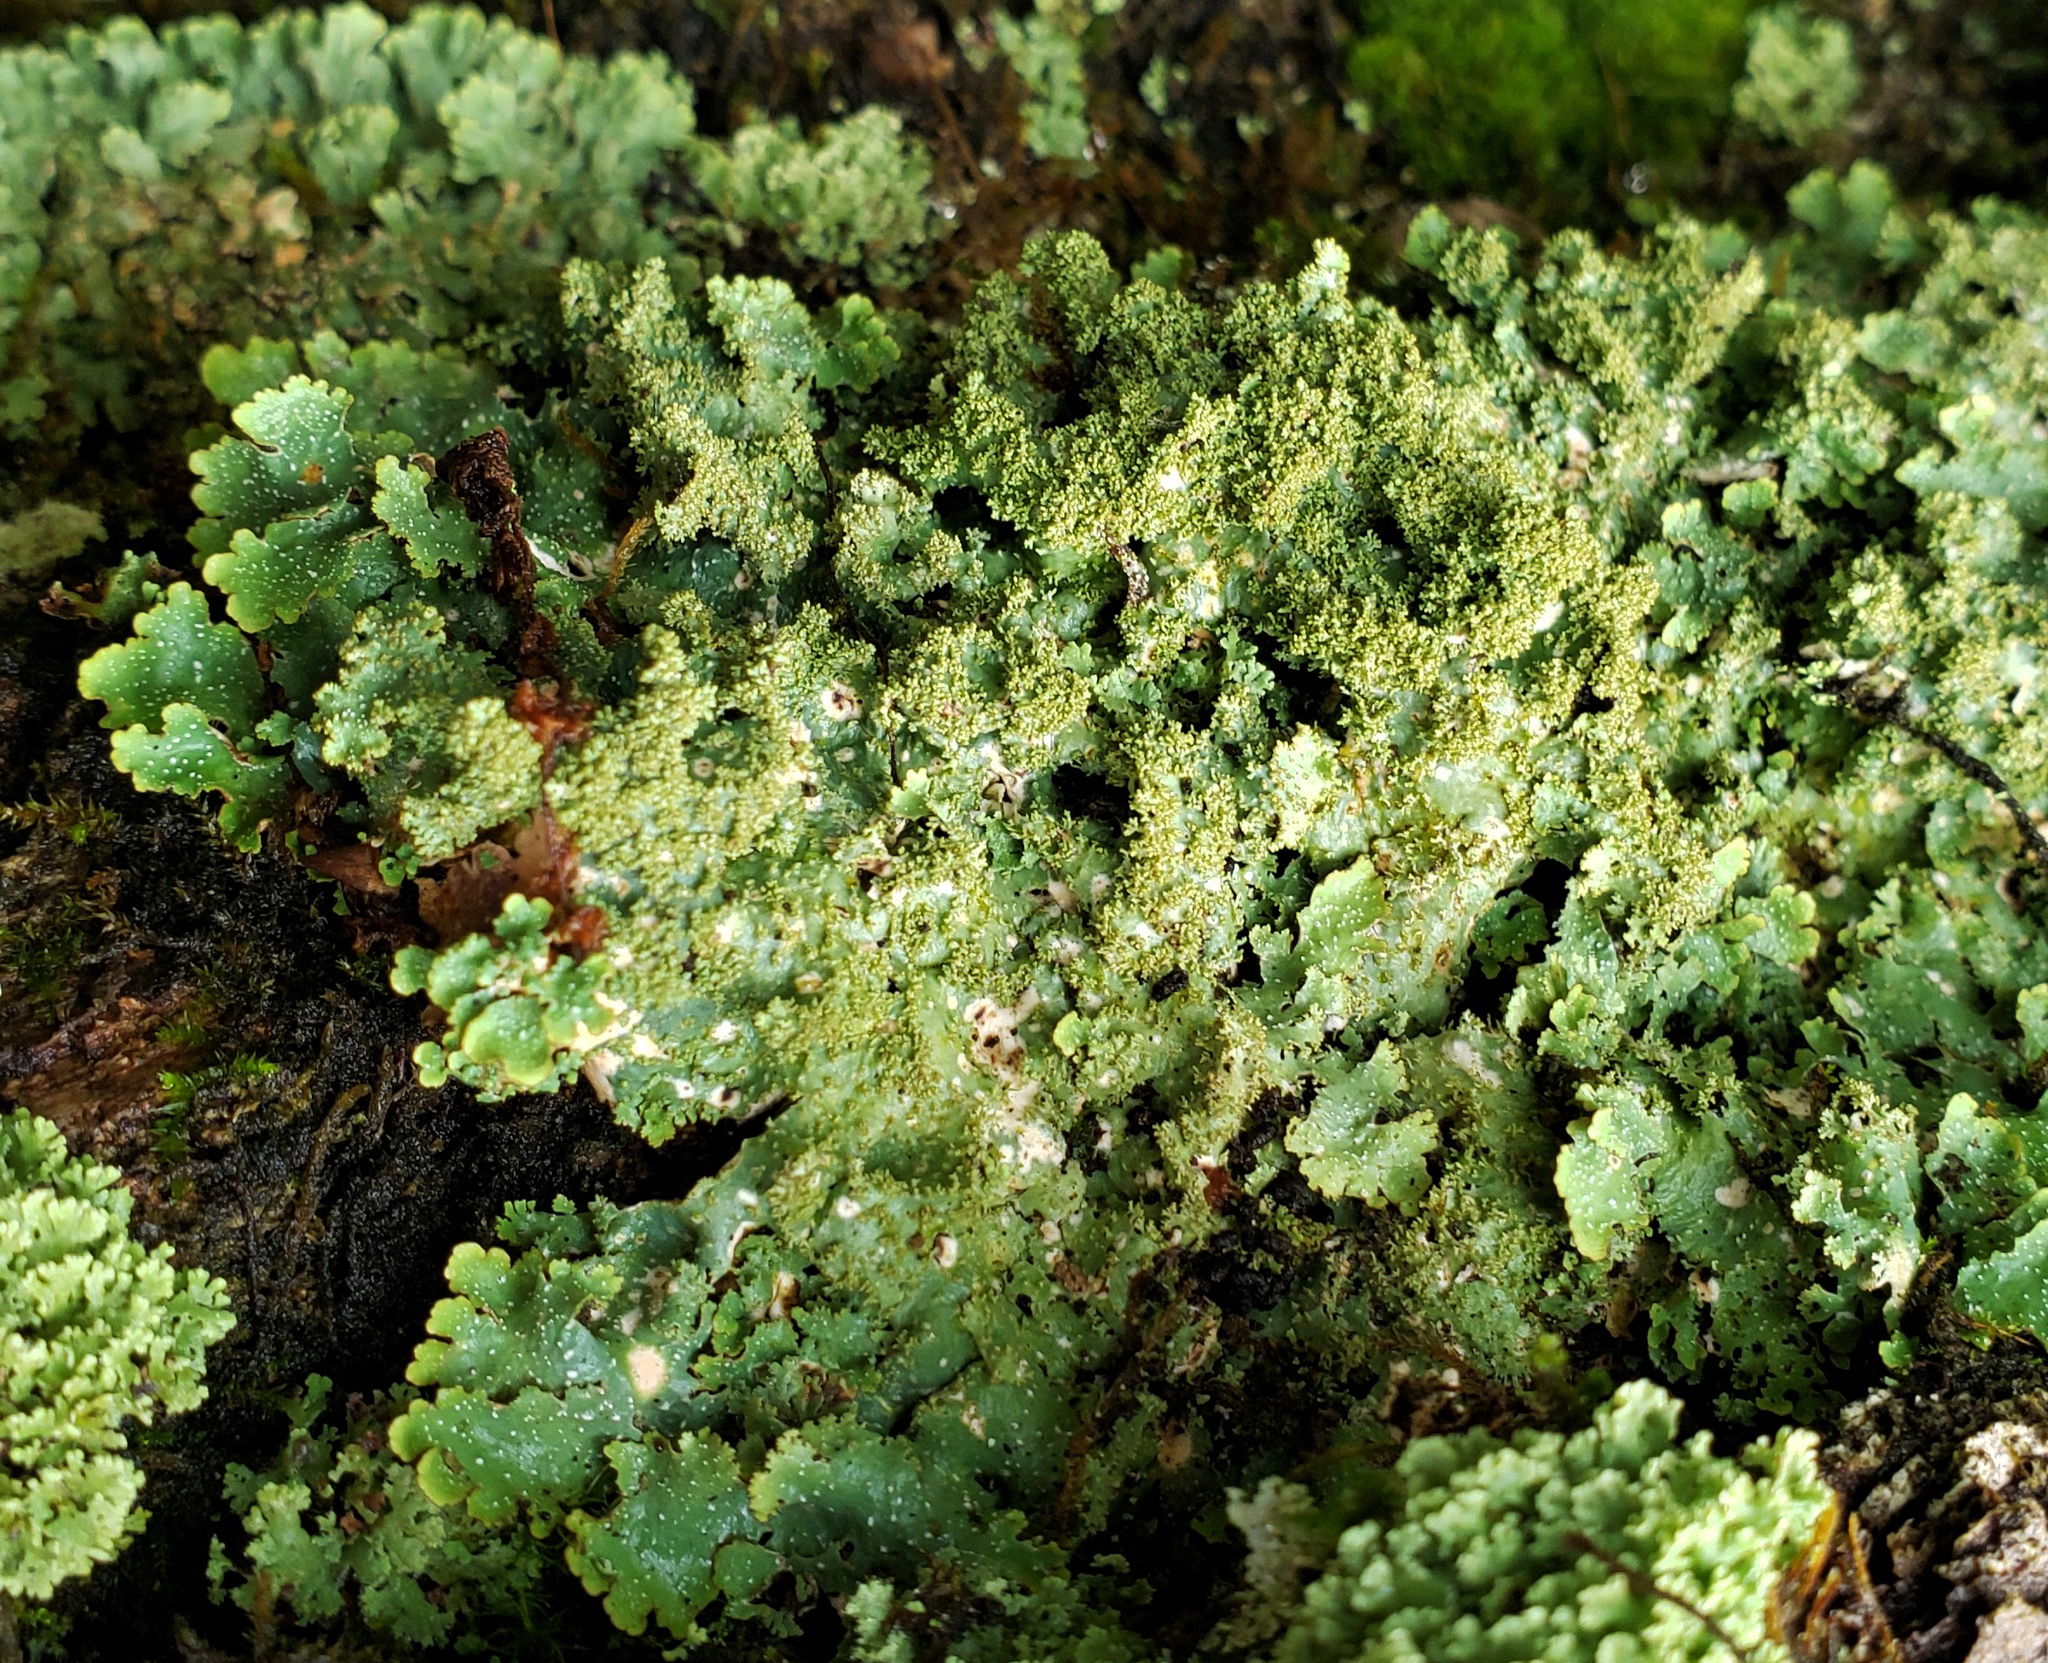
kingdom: Fungi
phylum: Ascomycota
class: Lecanoromycetes
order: Lecanorales
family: Parmeliaceae
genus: Punctelia
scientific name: Punctelia rudecta
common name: Rough speckled shield lichen
